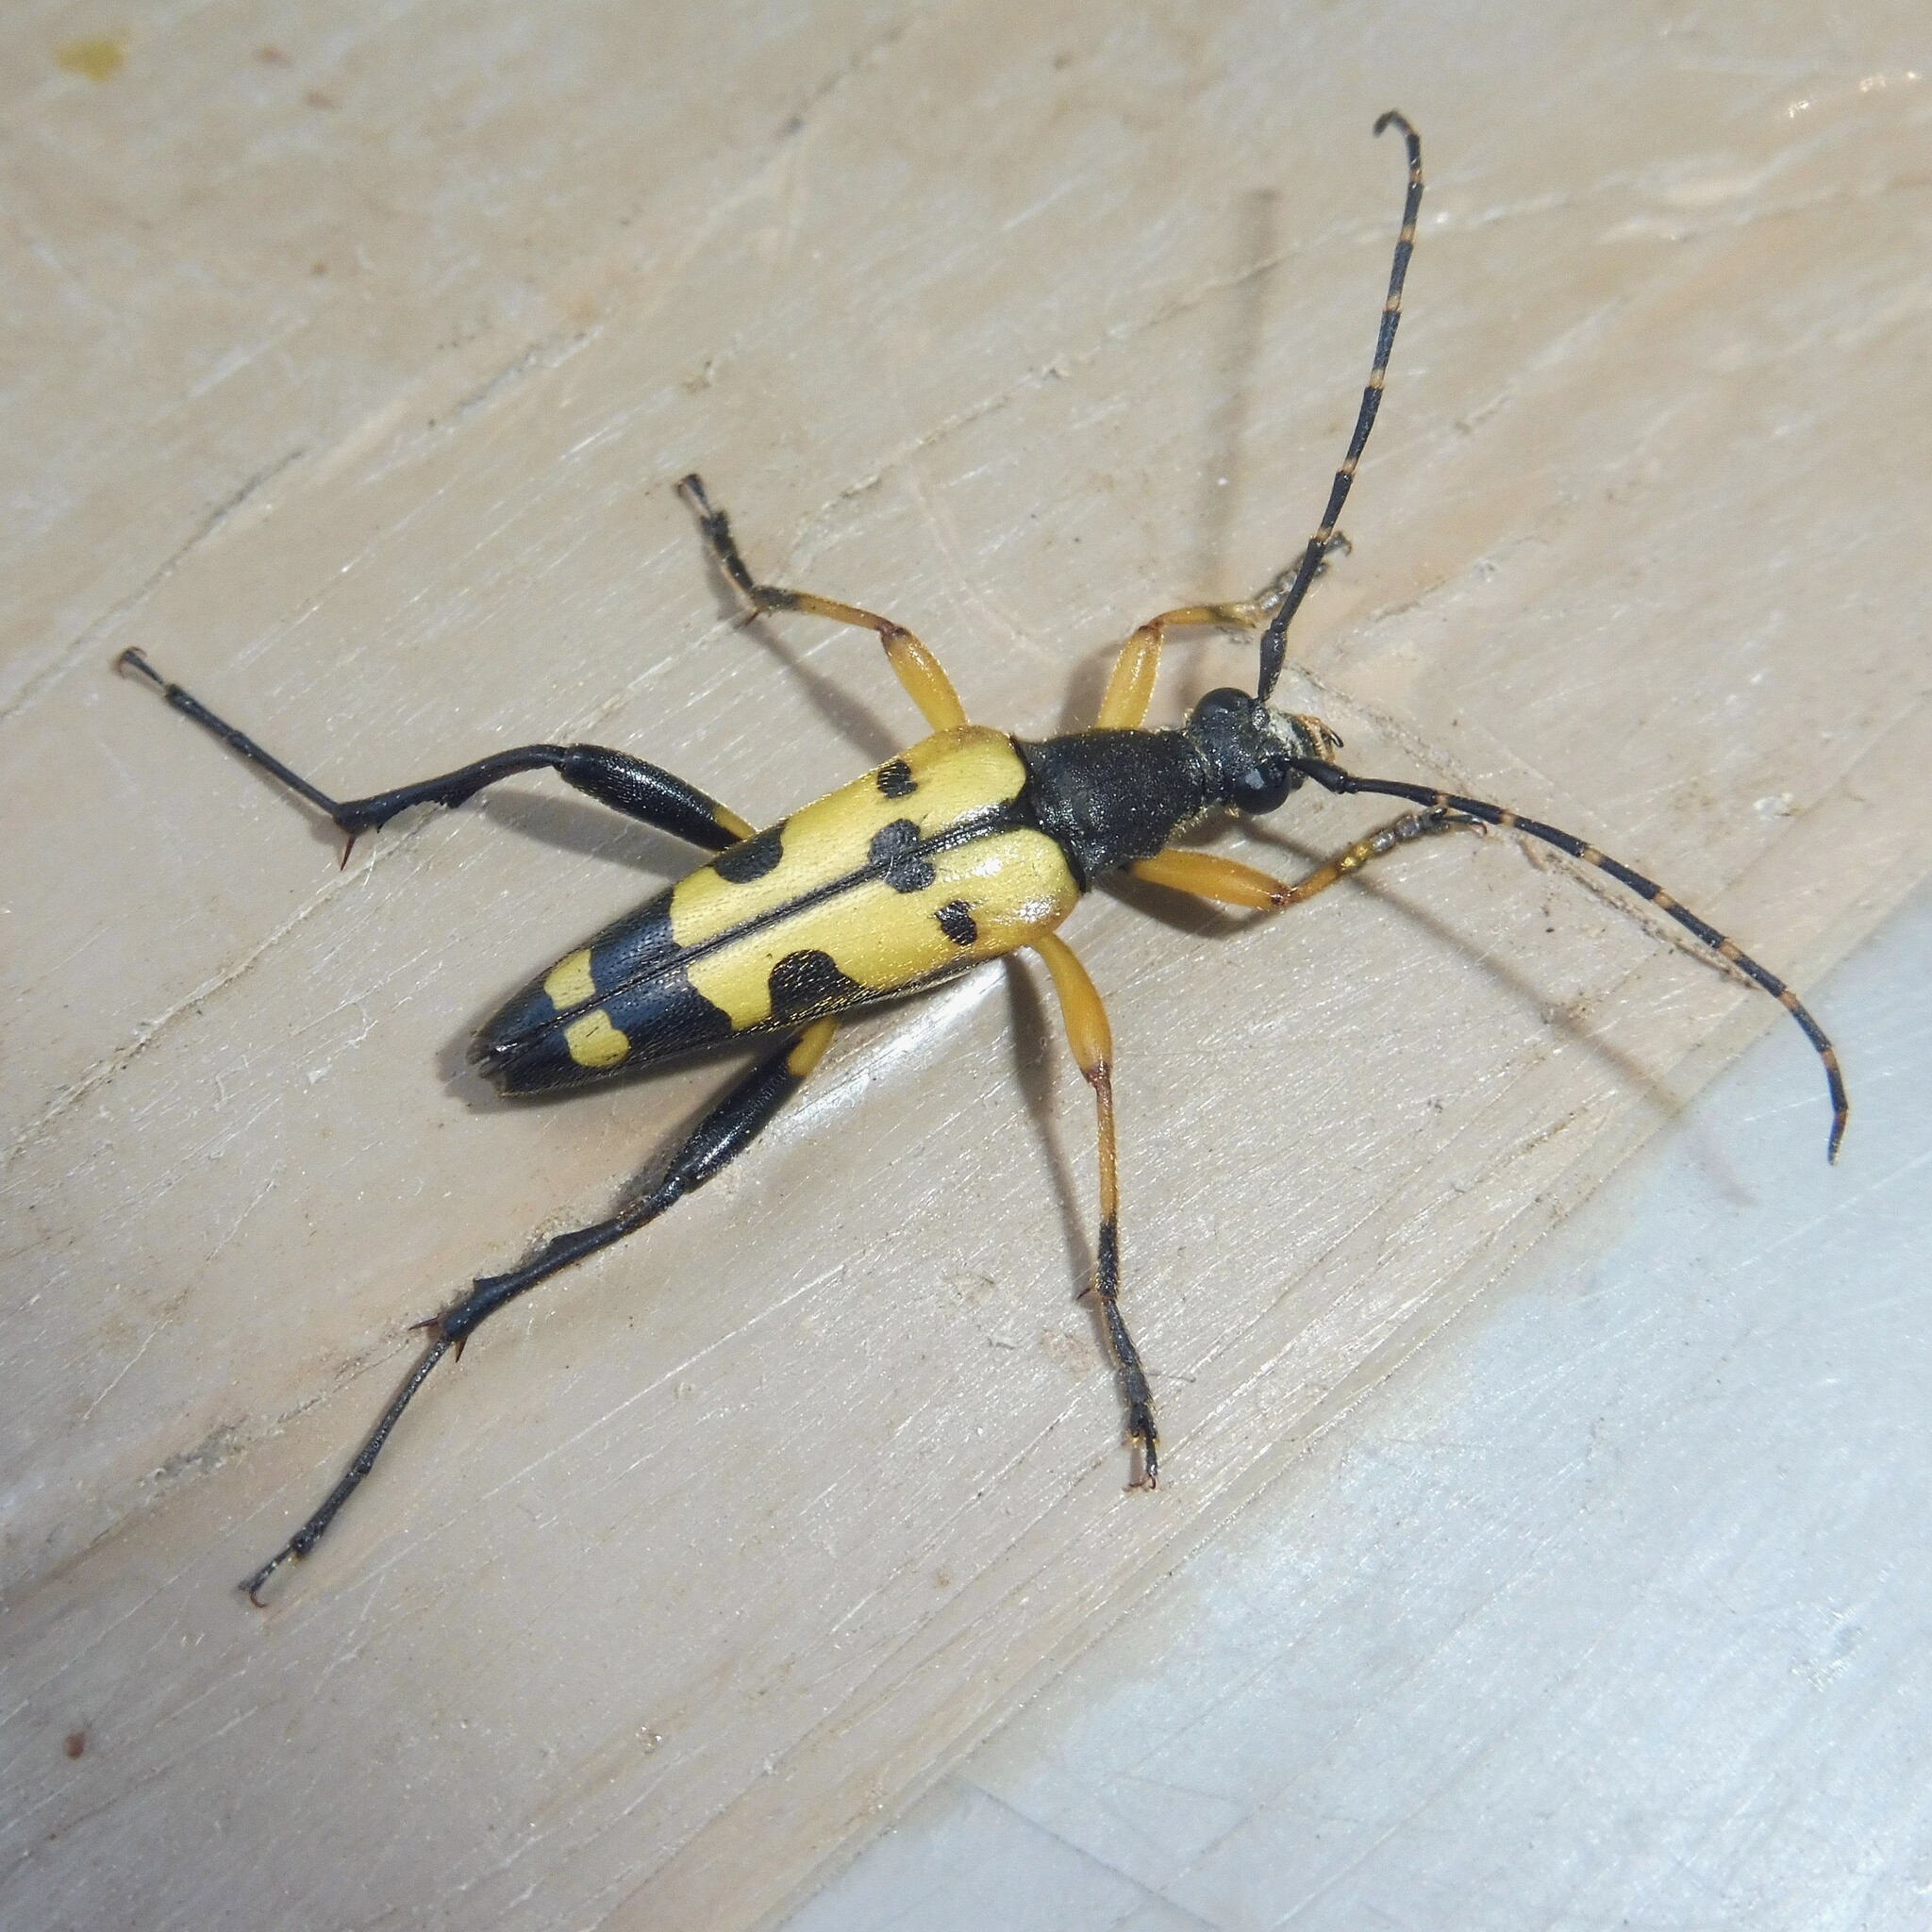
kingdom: Animalia
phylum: Arthropoda
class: Insecta
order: Coleoptera
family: Cerambycidae
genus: Rutpela
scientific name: Rutpela maculata
